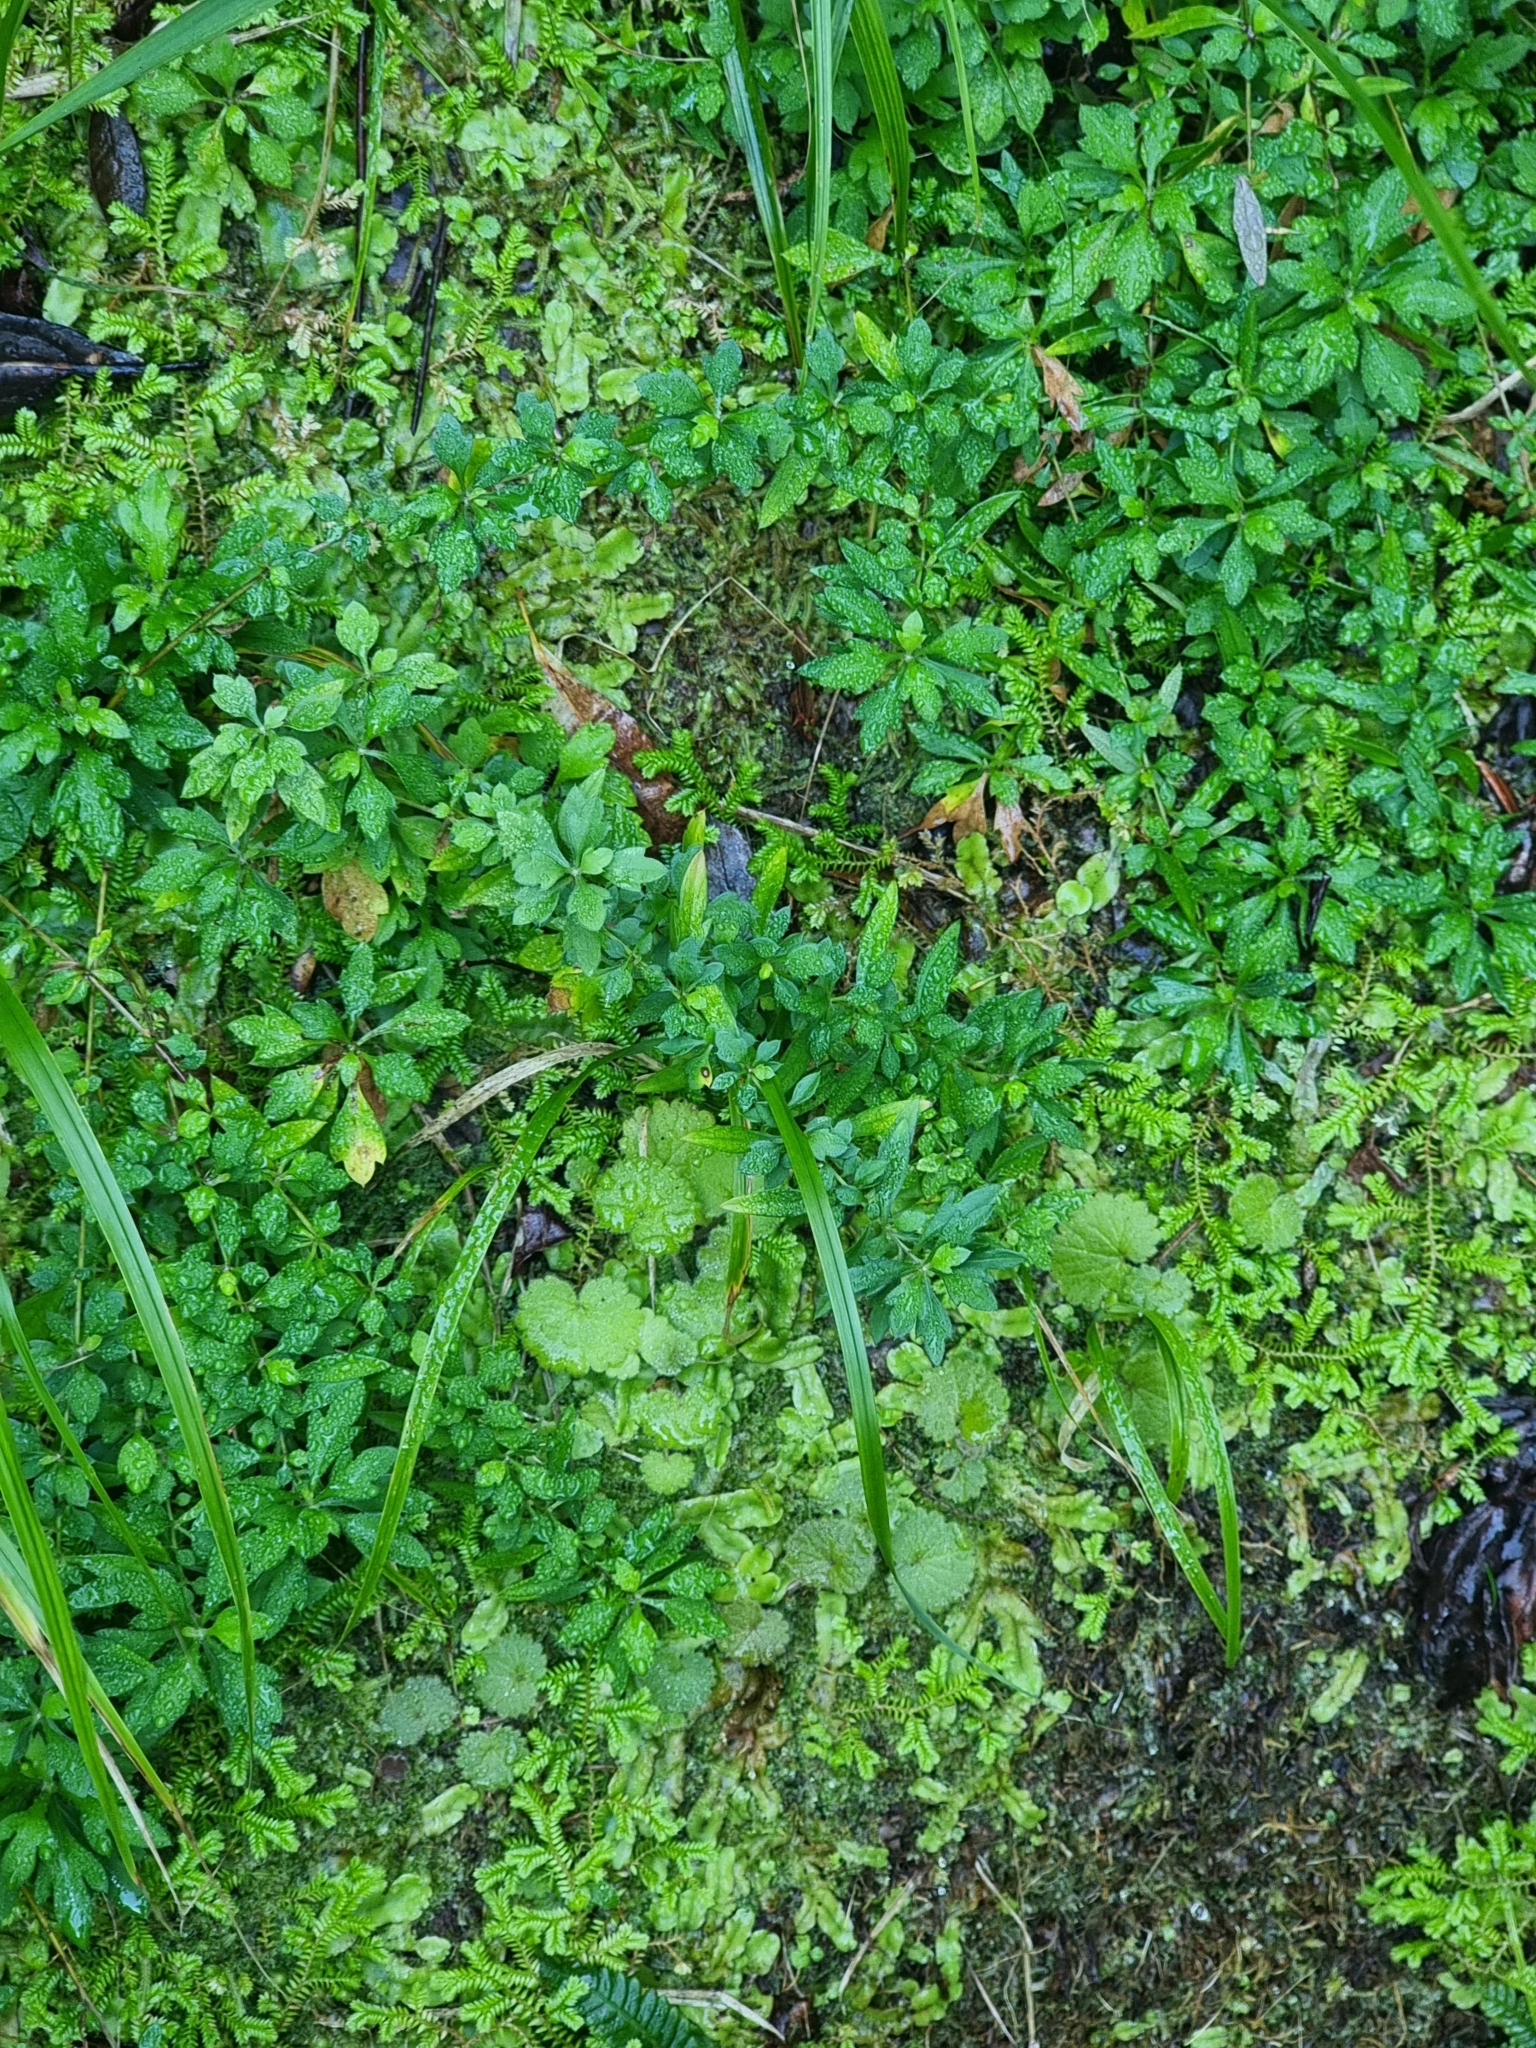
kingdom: Plantae
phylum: Tracheophyta
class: Magnoliopsida
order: Asterales
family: Asteraceae
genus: Erigeron
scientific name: Erigeron karvinskianus
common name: Mexican fleabane
